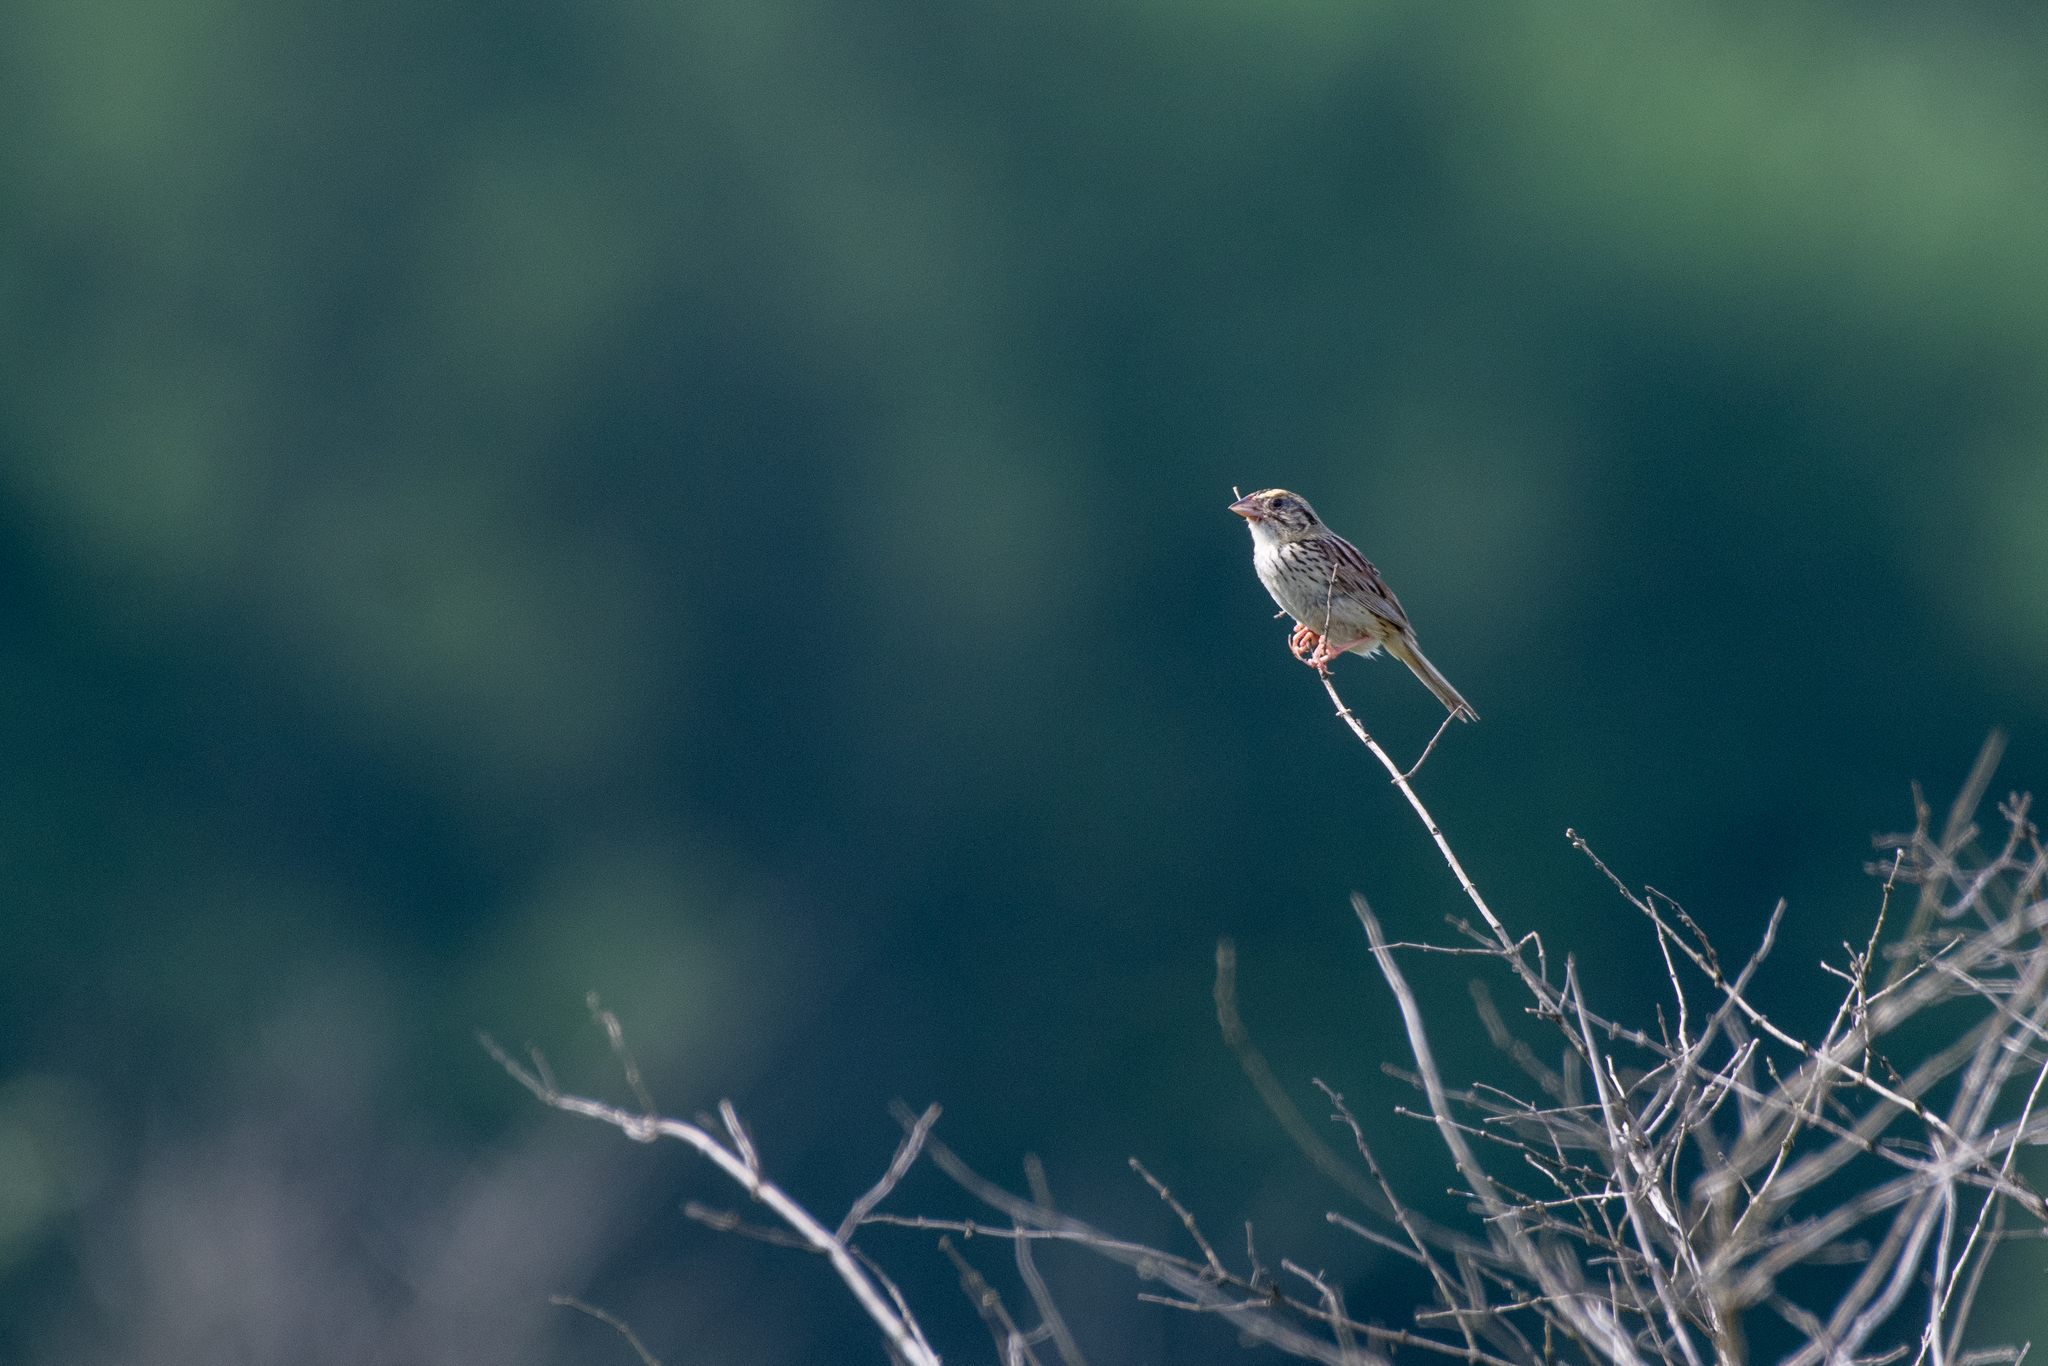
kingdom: Animalia
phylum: Chordata
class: Aves
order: Passeriformes
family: Passerellidae
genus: Centronyx
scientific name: Centronyx henslowii
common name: Henslow's sparrow
